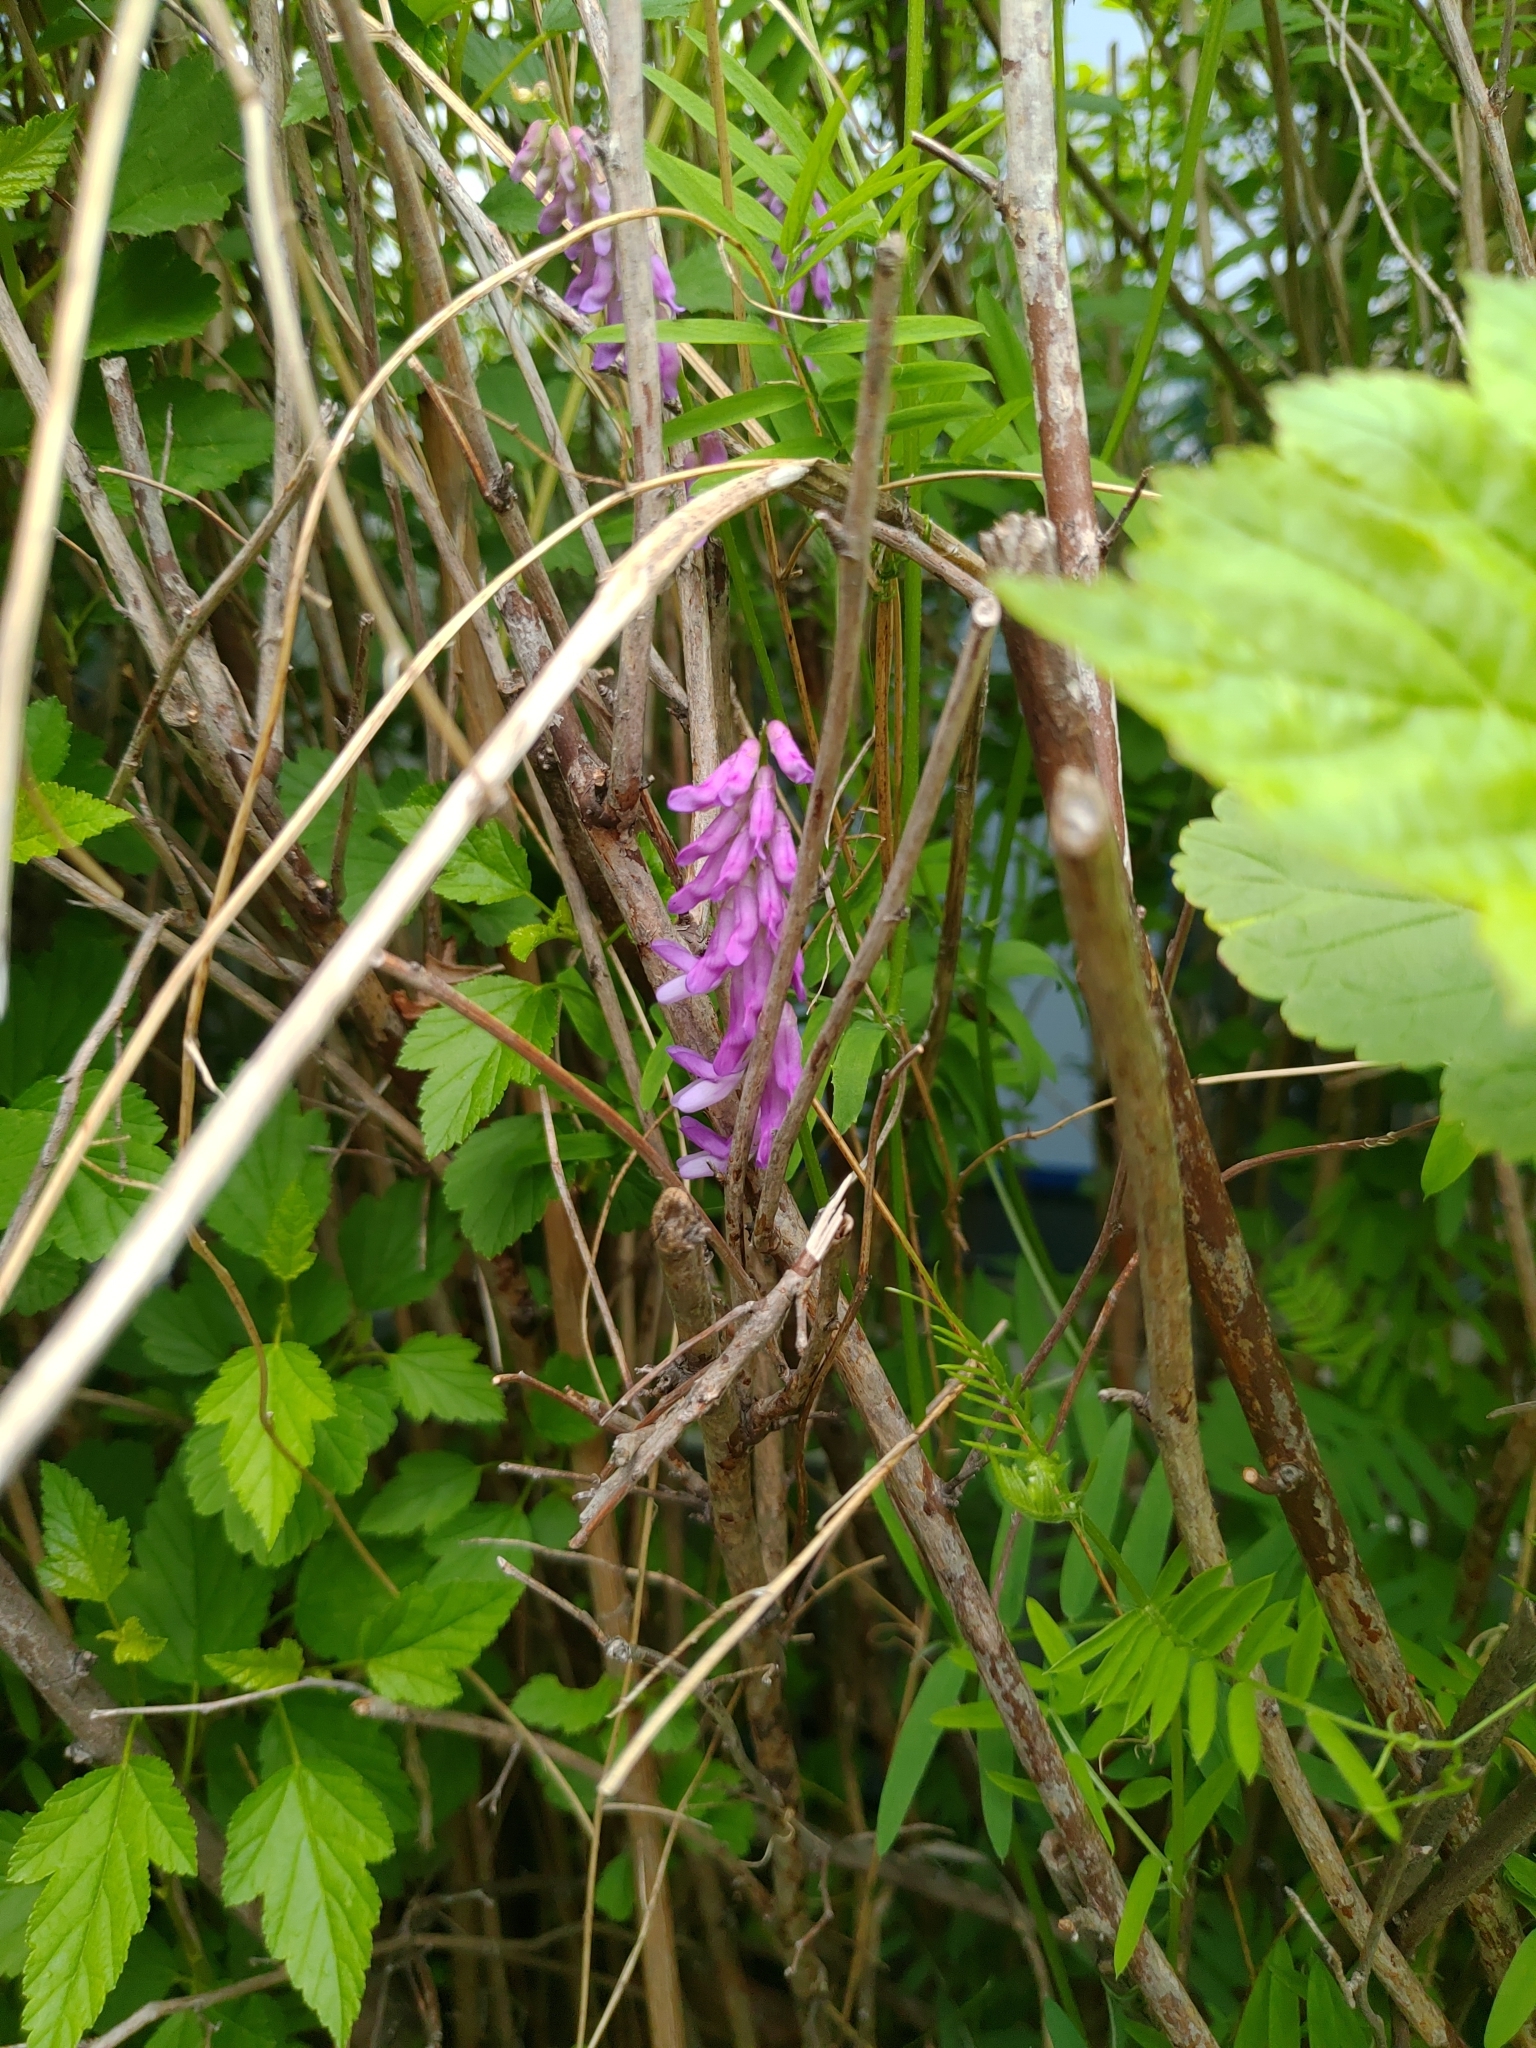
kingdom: Plantae
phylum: Tracheophyta
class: Magnoliopsida
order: Fabales
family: Fabaceae
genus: Vicia
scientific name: Vicia cracca
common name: Bird vetch
